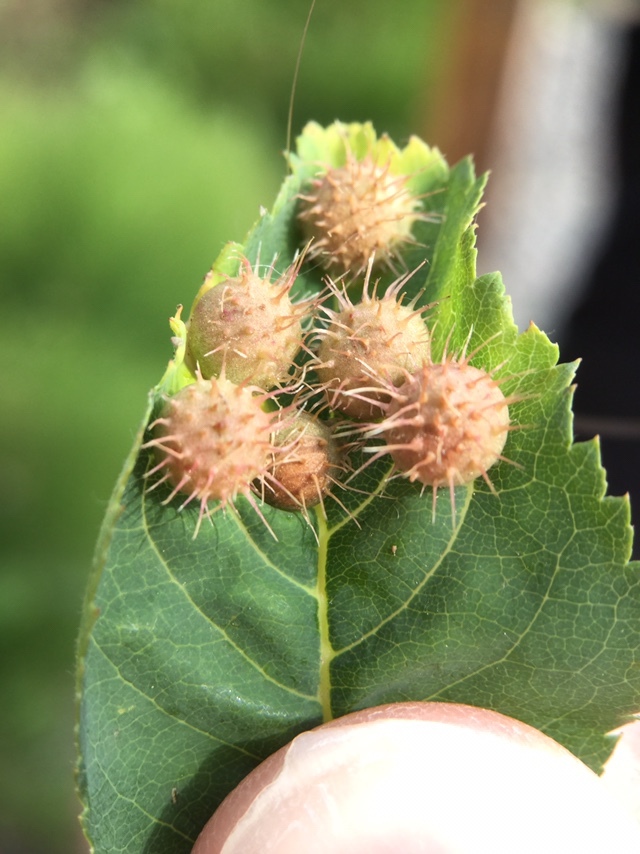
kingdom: Animalia
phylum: Arthropoda
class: Insecta
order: Hymenoptera
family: Cynipidae
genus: Diplolepis
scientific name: Diplolepis polita
